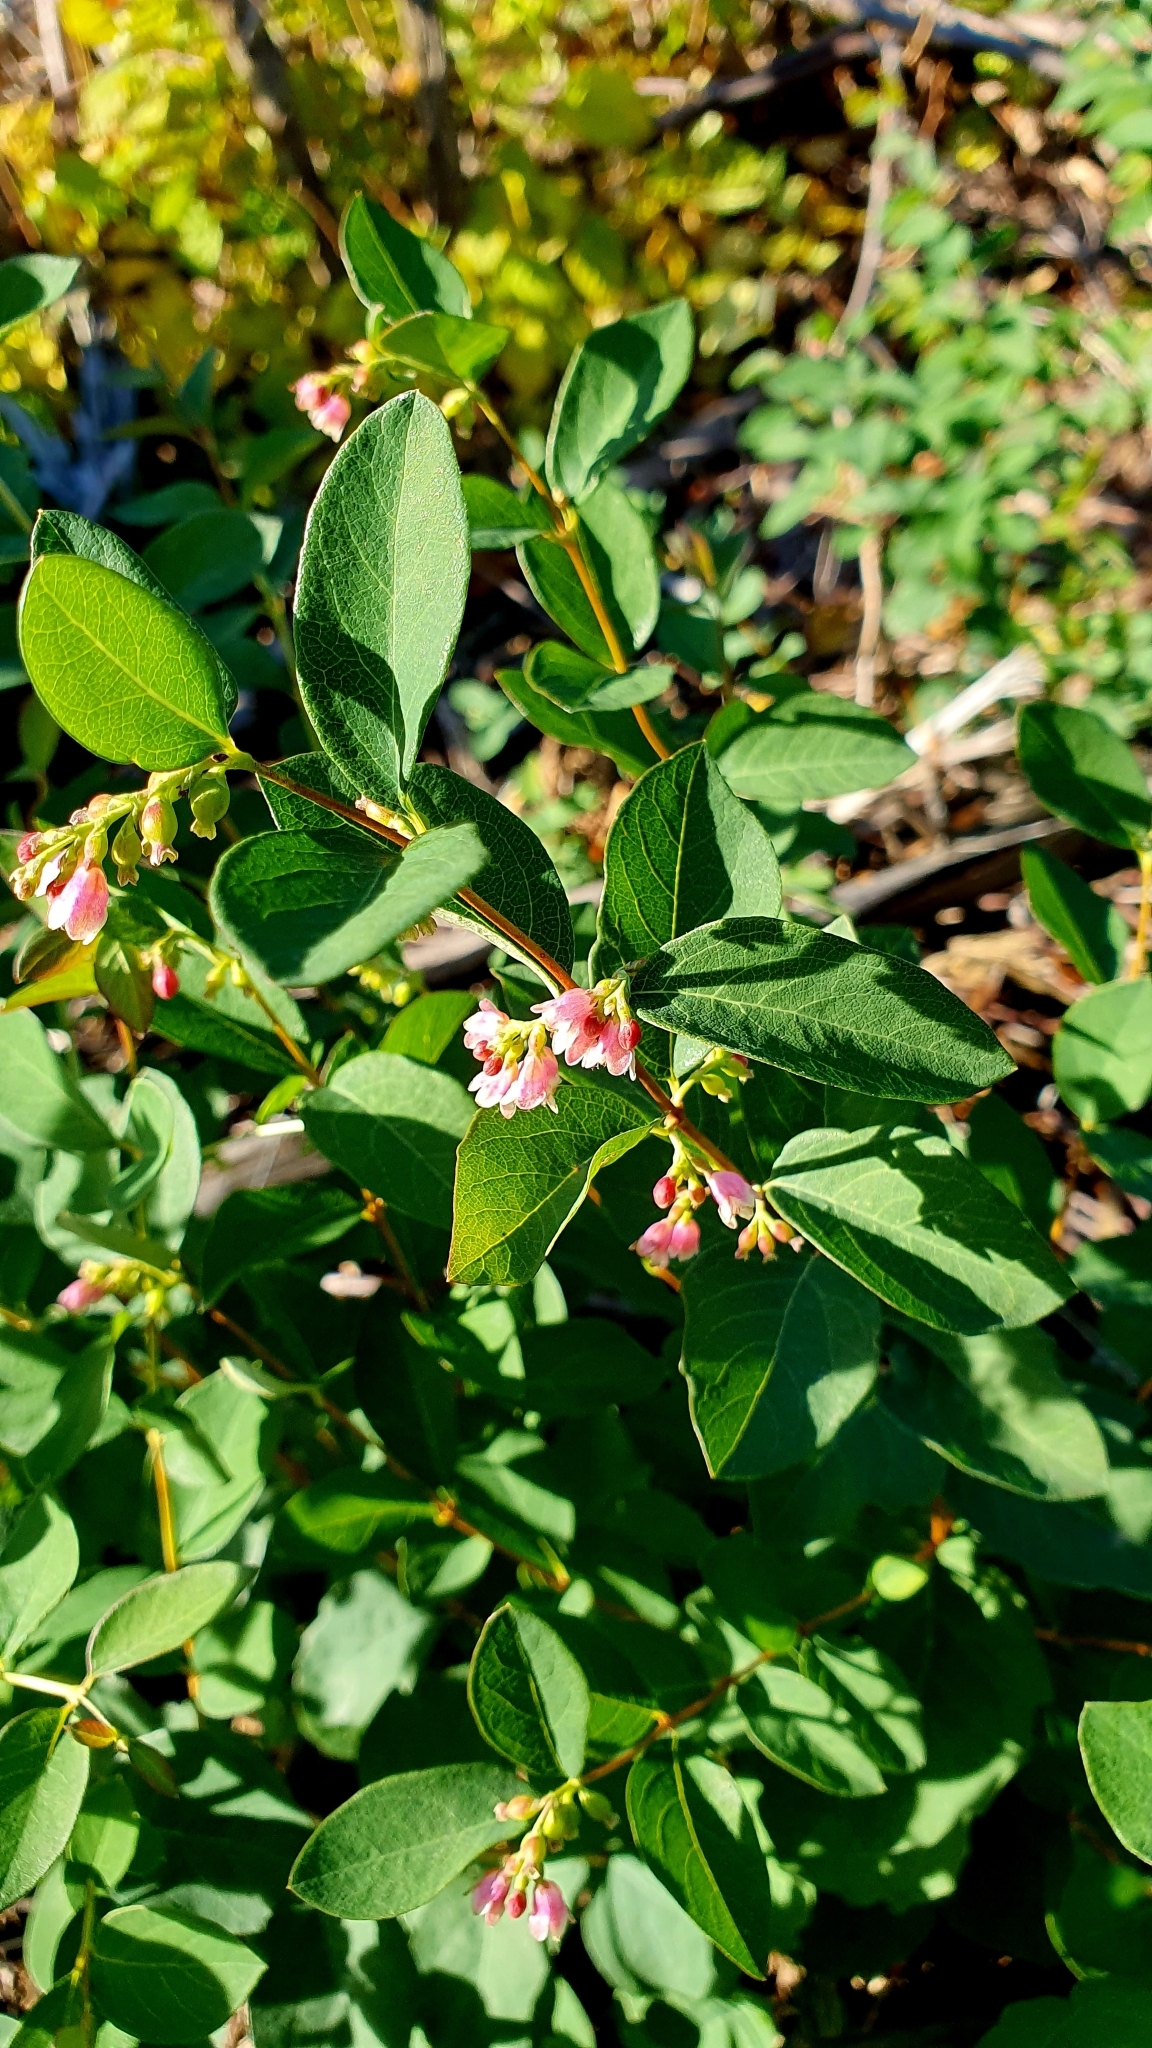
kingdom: Plantae
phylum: Tracheophyta
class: Magnoliopsida
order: Dipsacales
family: Caprifoliaceae
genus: Symphoricarpos
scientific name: Symphoricarpos albus
